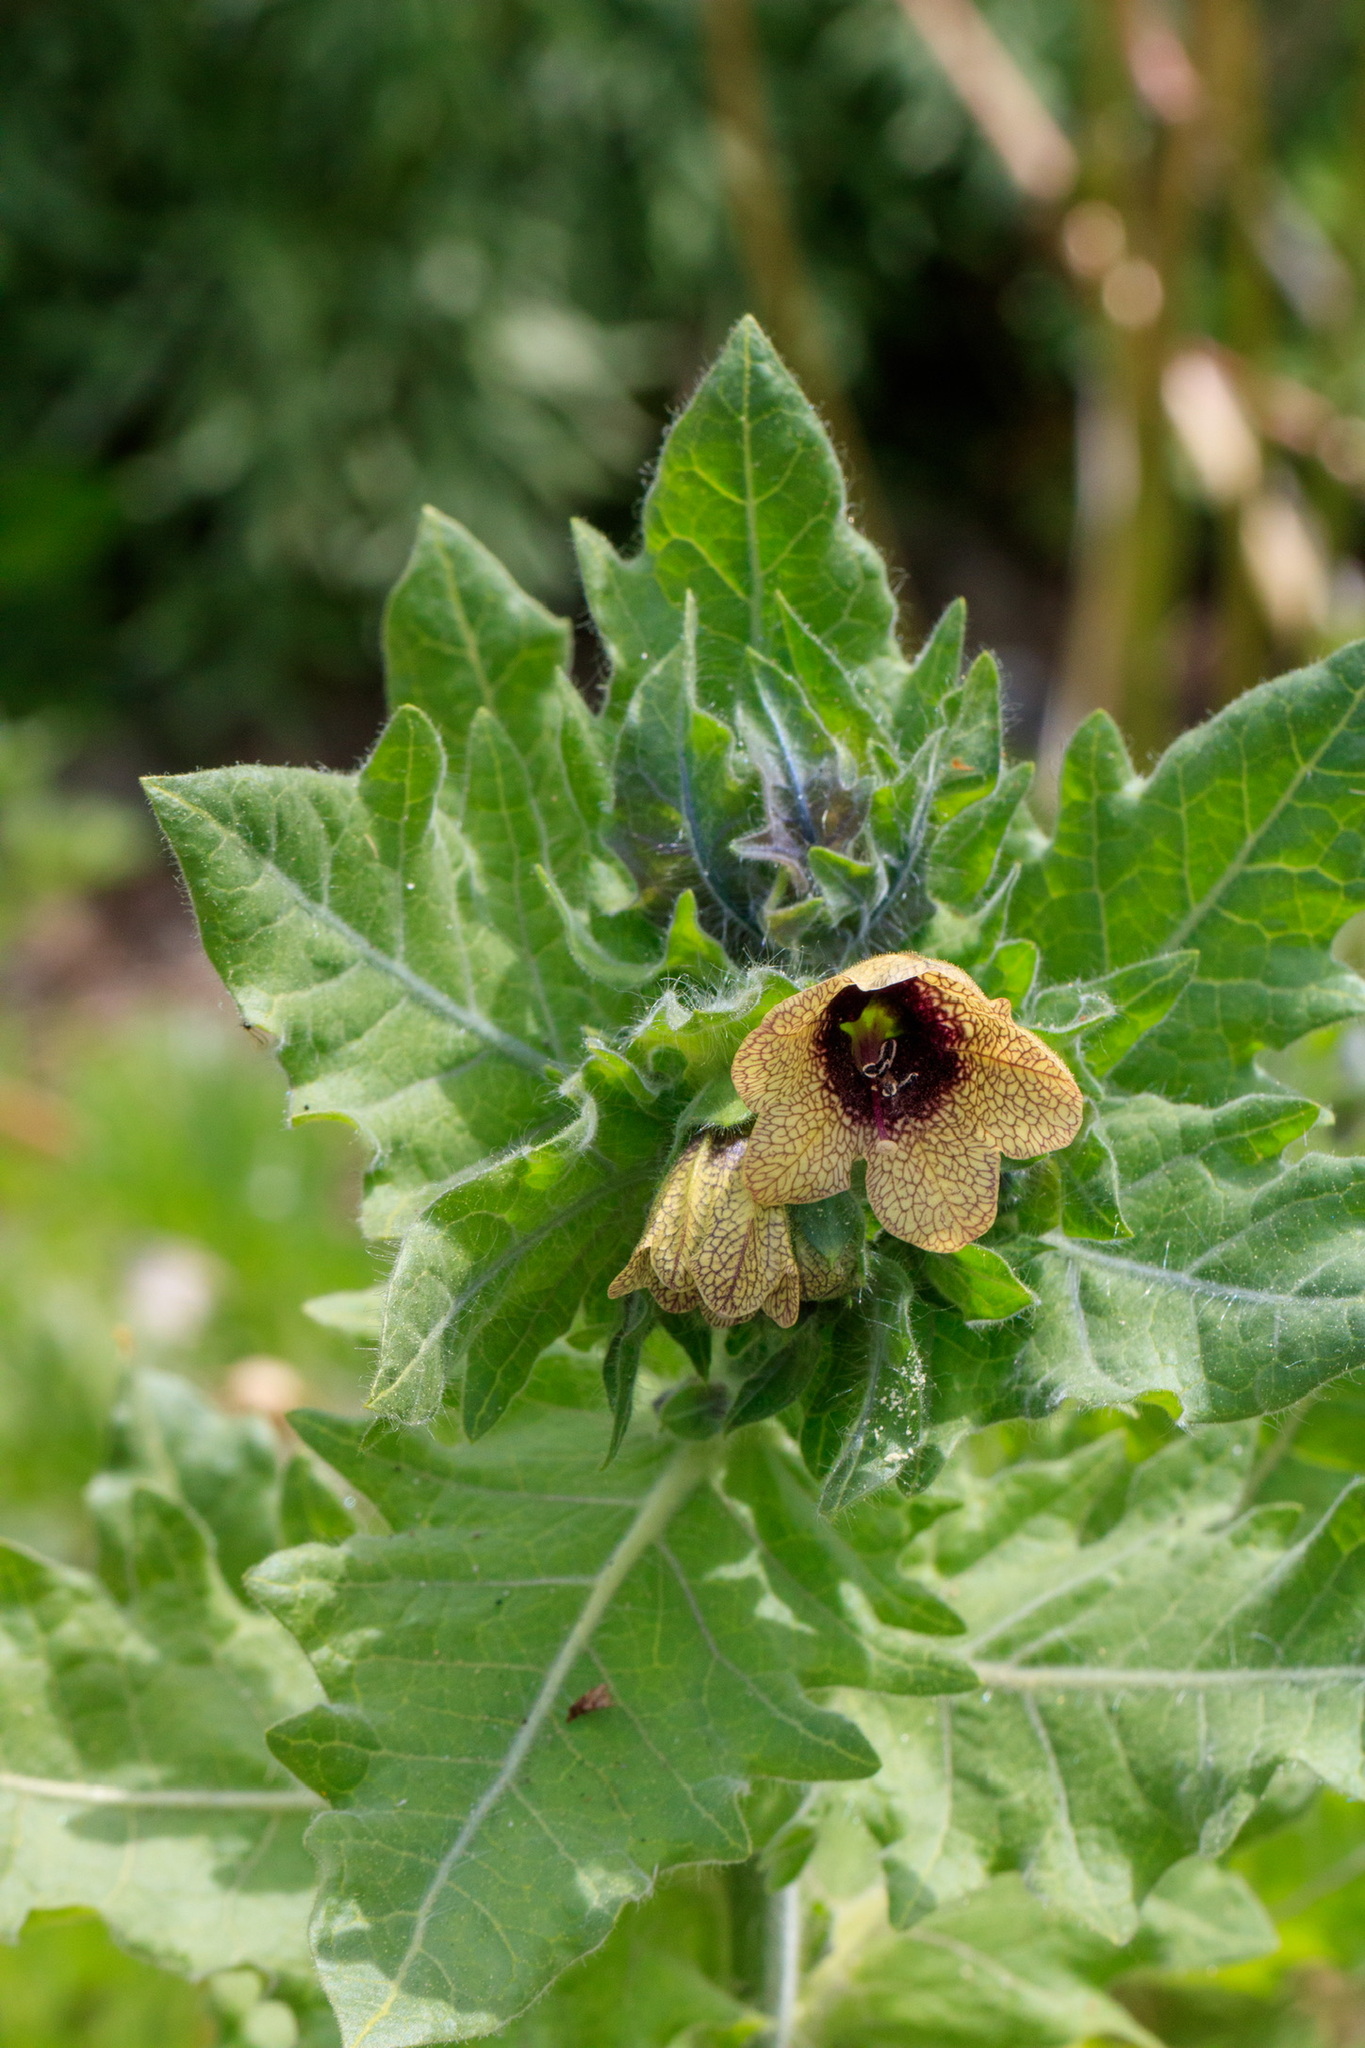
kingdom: Plantae
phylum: Tracheophyta
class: Magnoliopsida
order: Solanales
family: Solanaceae
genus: Hyoscyamus
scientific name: Hyoscyamus niger
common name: Henbane
